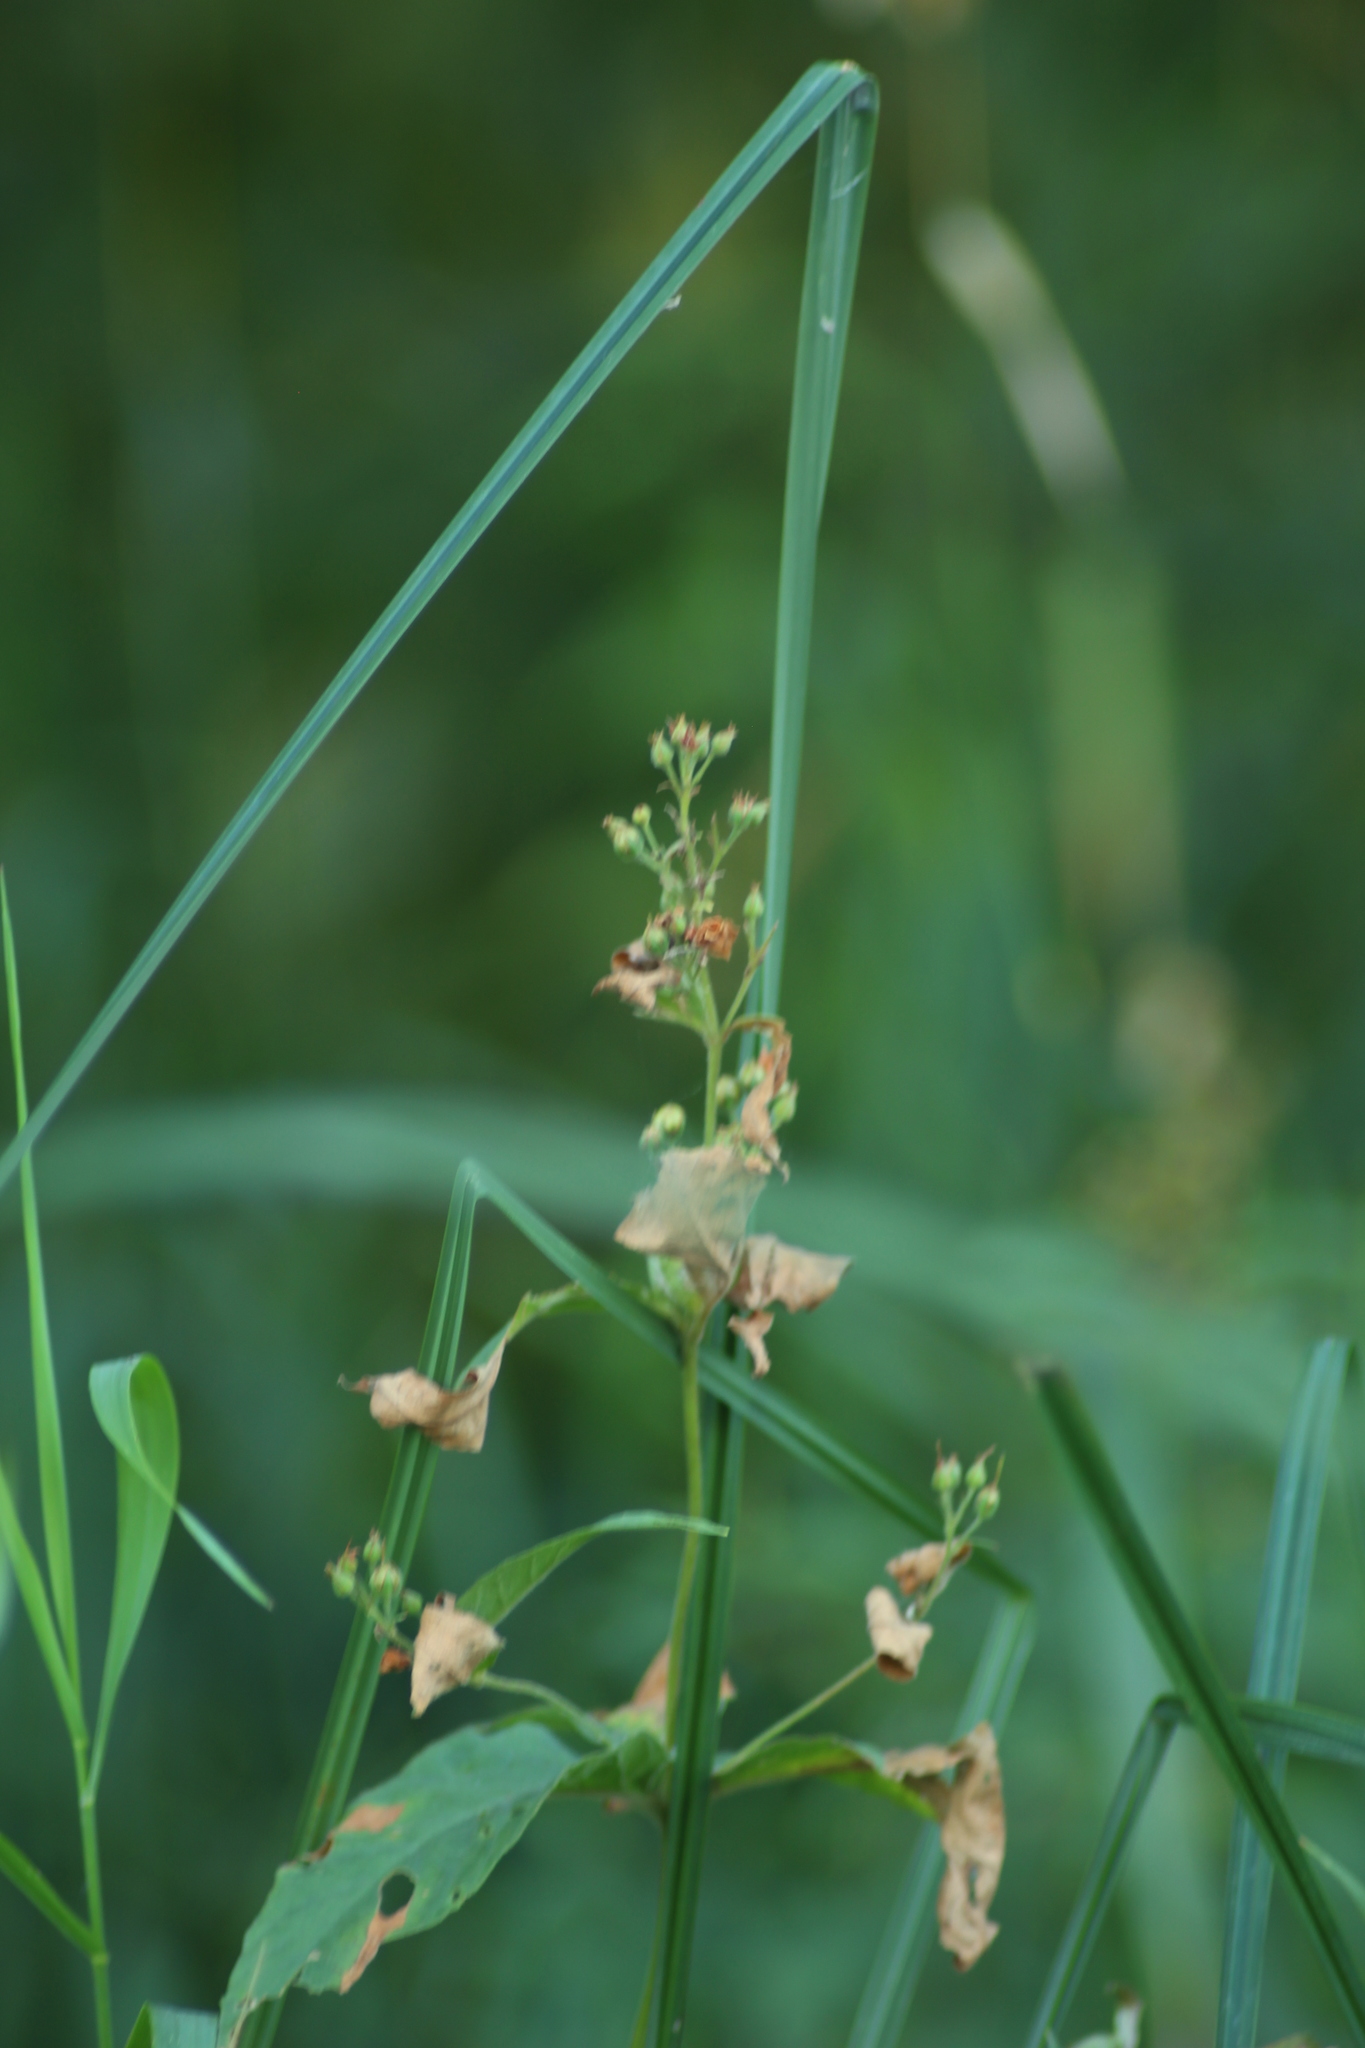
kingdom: Plantae
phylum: Tracheophyta
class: Magnoliopsida
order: Ericales
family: Primulaceae
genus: Lysimachia
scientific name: Lysimachia vulgaris
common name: Yellow loosestrife
